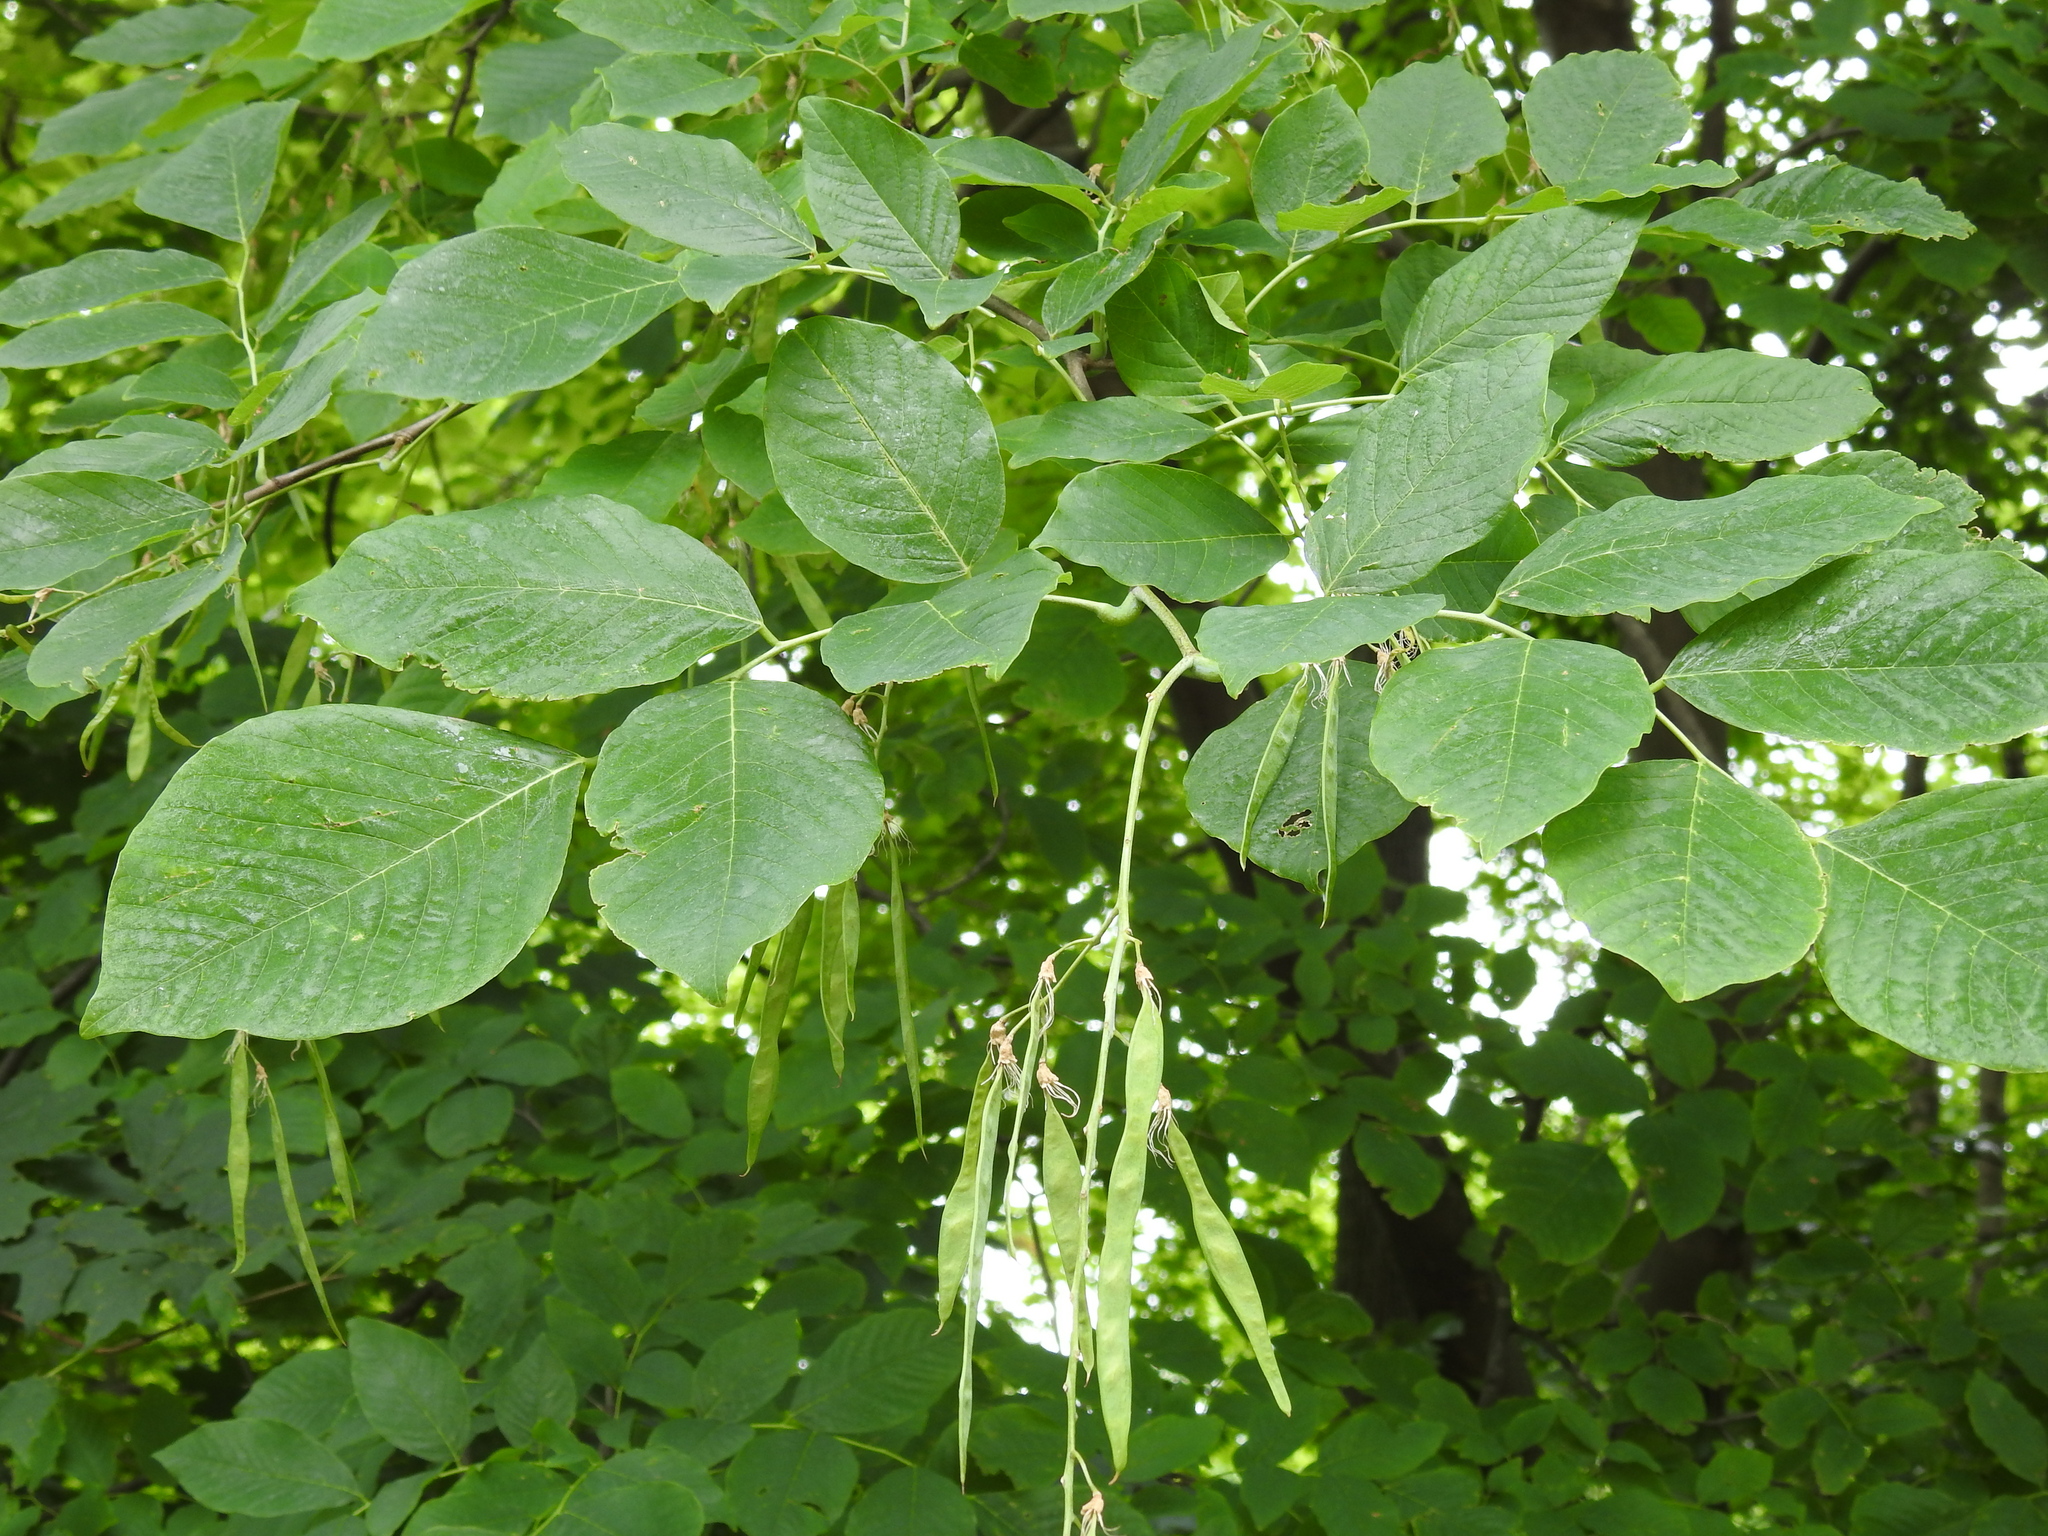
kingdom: Plantae
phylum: Tracheophyta
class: Magnoliopsida
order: Fabales
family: Fabaceae
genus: Cladrastis
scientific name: Cladrastis kentukea
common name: Kentucky yellow-wood
